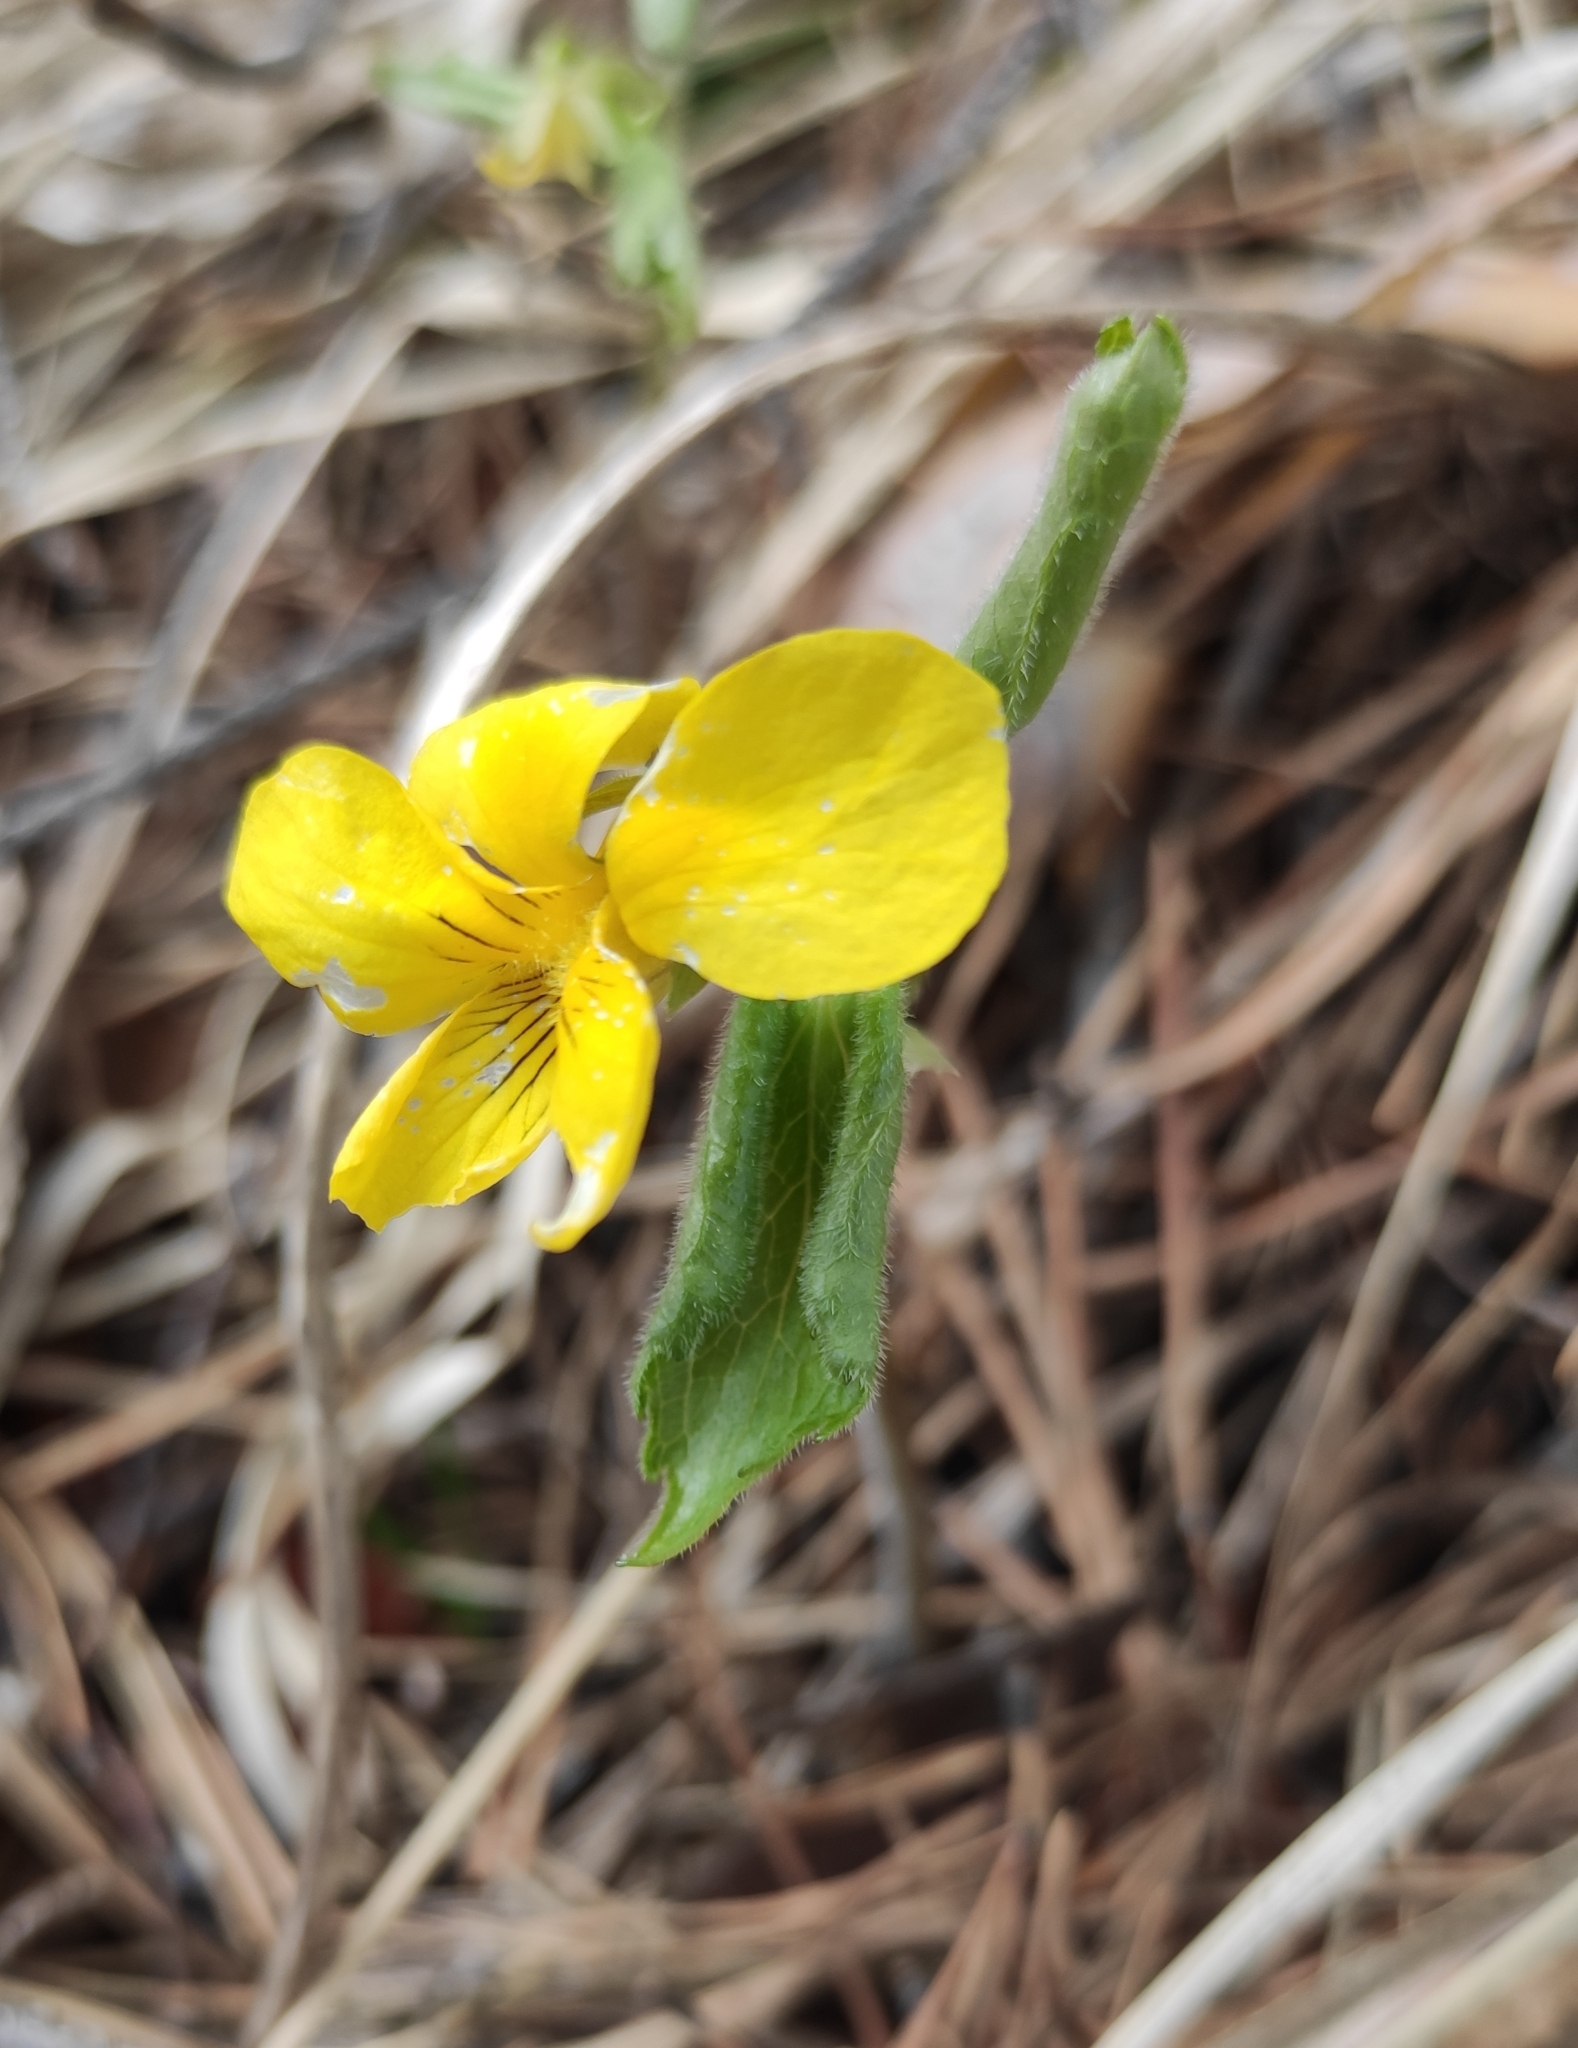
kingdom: Plantae
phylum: Tracheophyta
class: Magnoliopsida
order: Malpighiales
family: Violaceae
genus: Viola
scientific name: Viola uniflora
